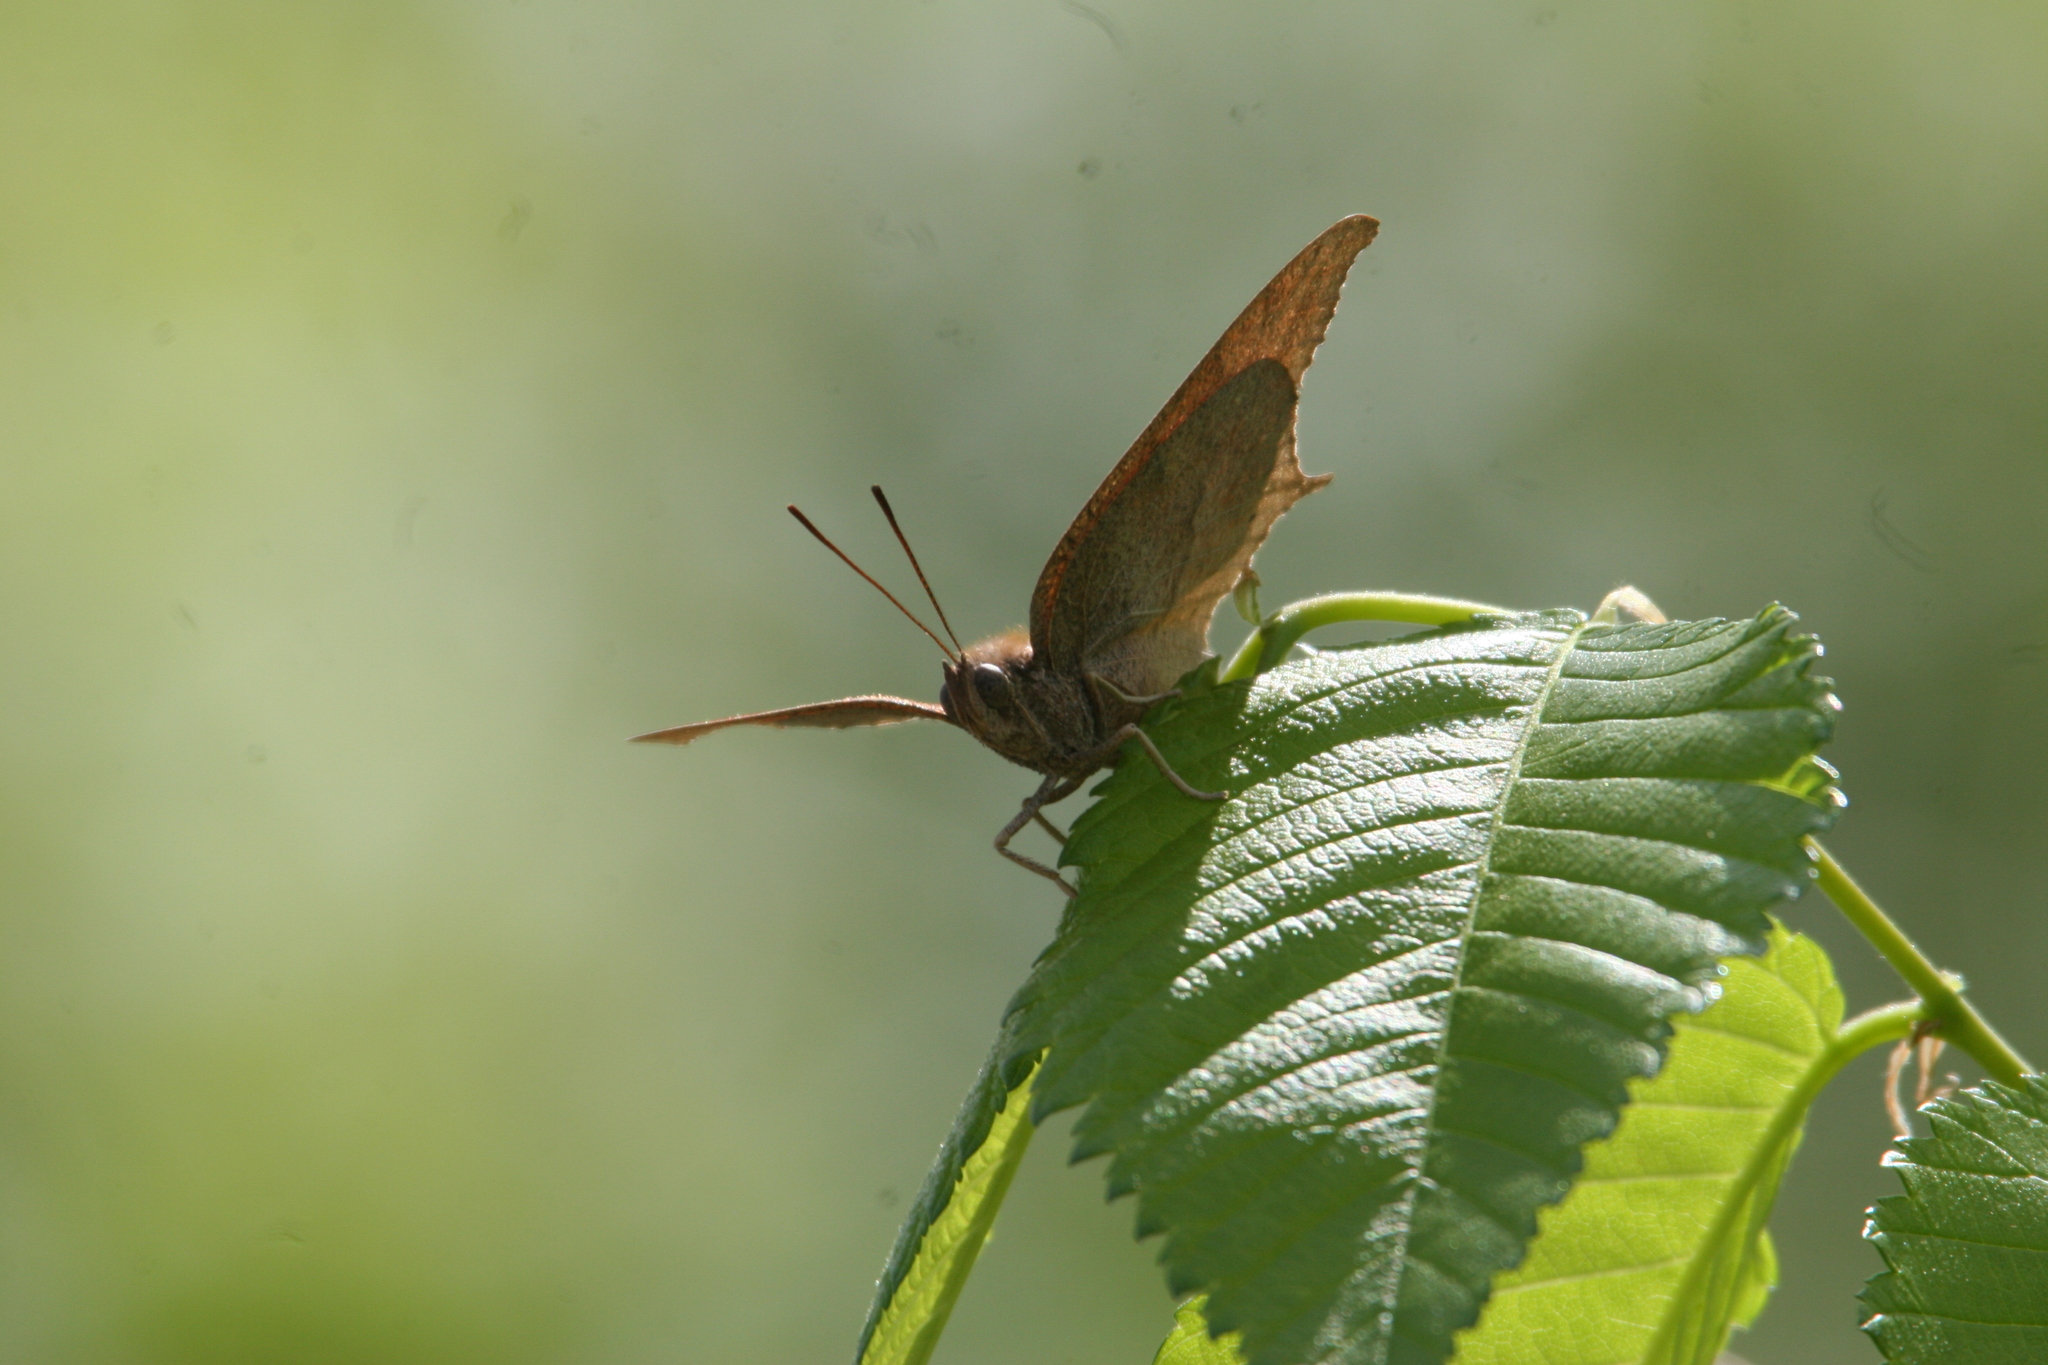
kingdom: Animalia
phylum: Arthropoda
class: Insecta
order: Lepidoptera
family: Nymphalidae
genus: Anaea
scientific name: Anaea andria
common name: Goatweed leafwing
